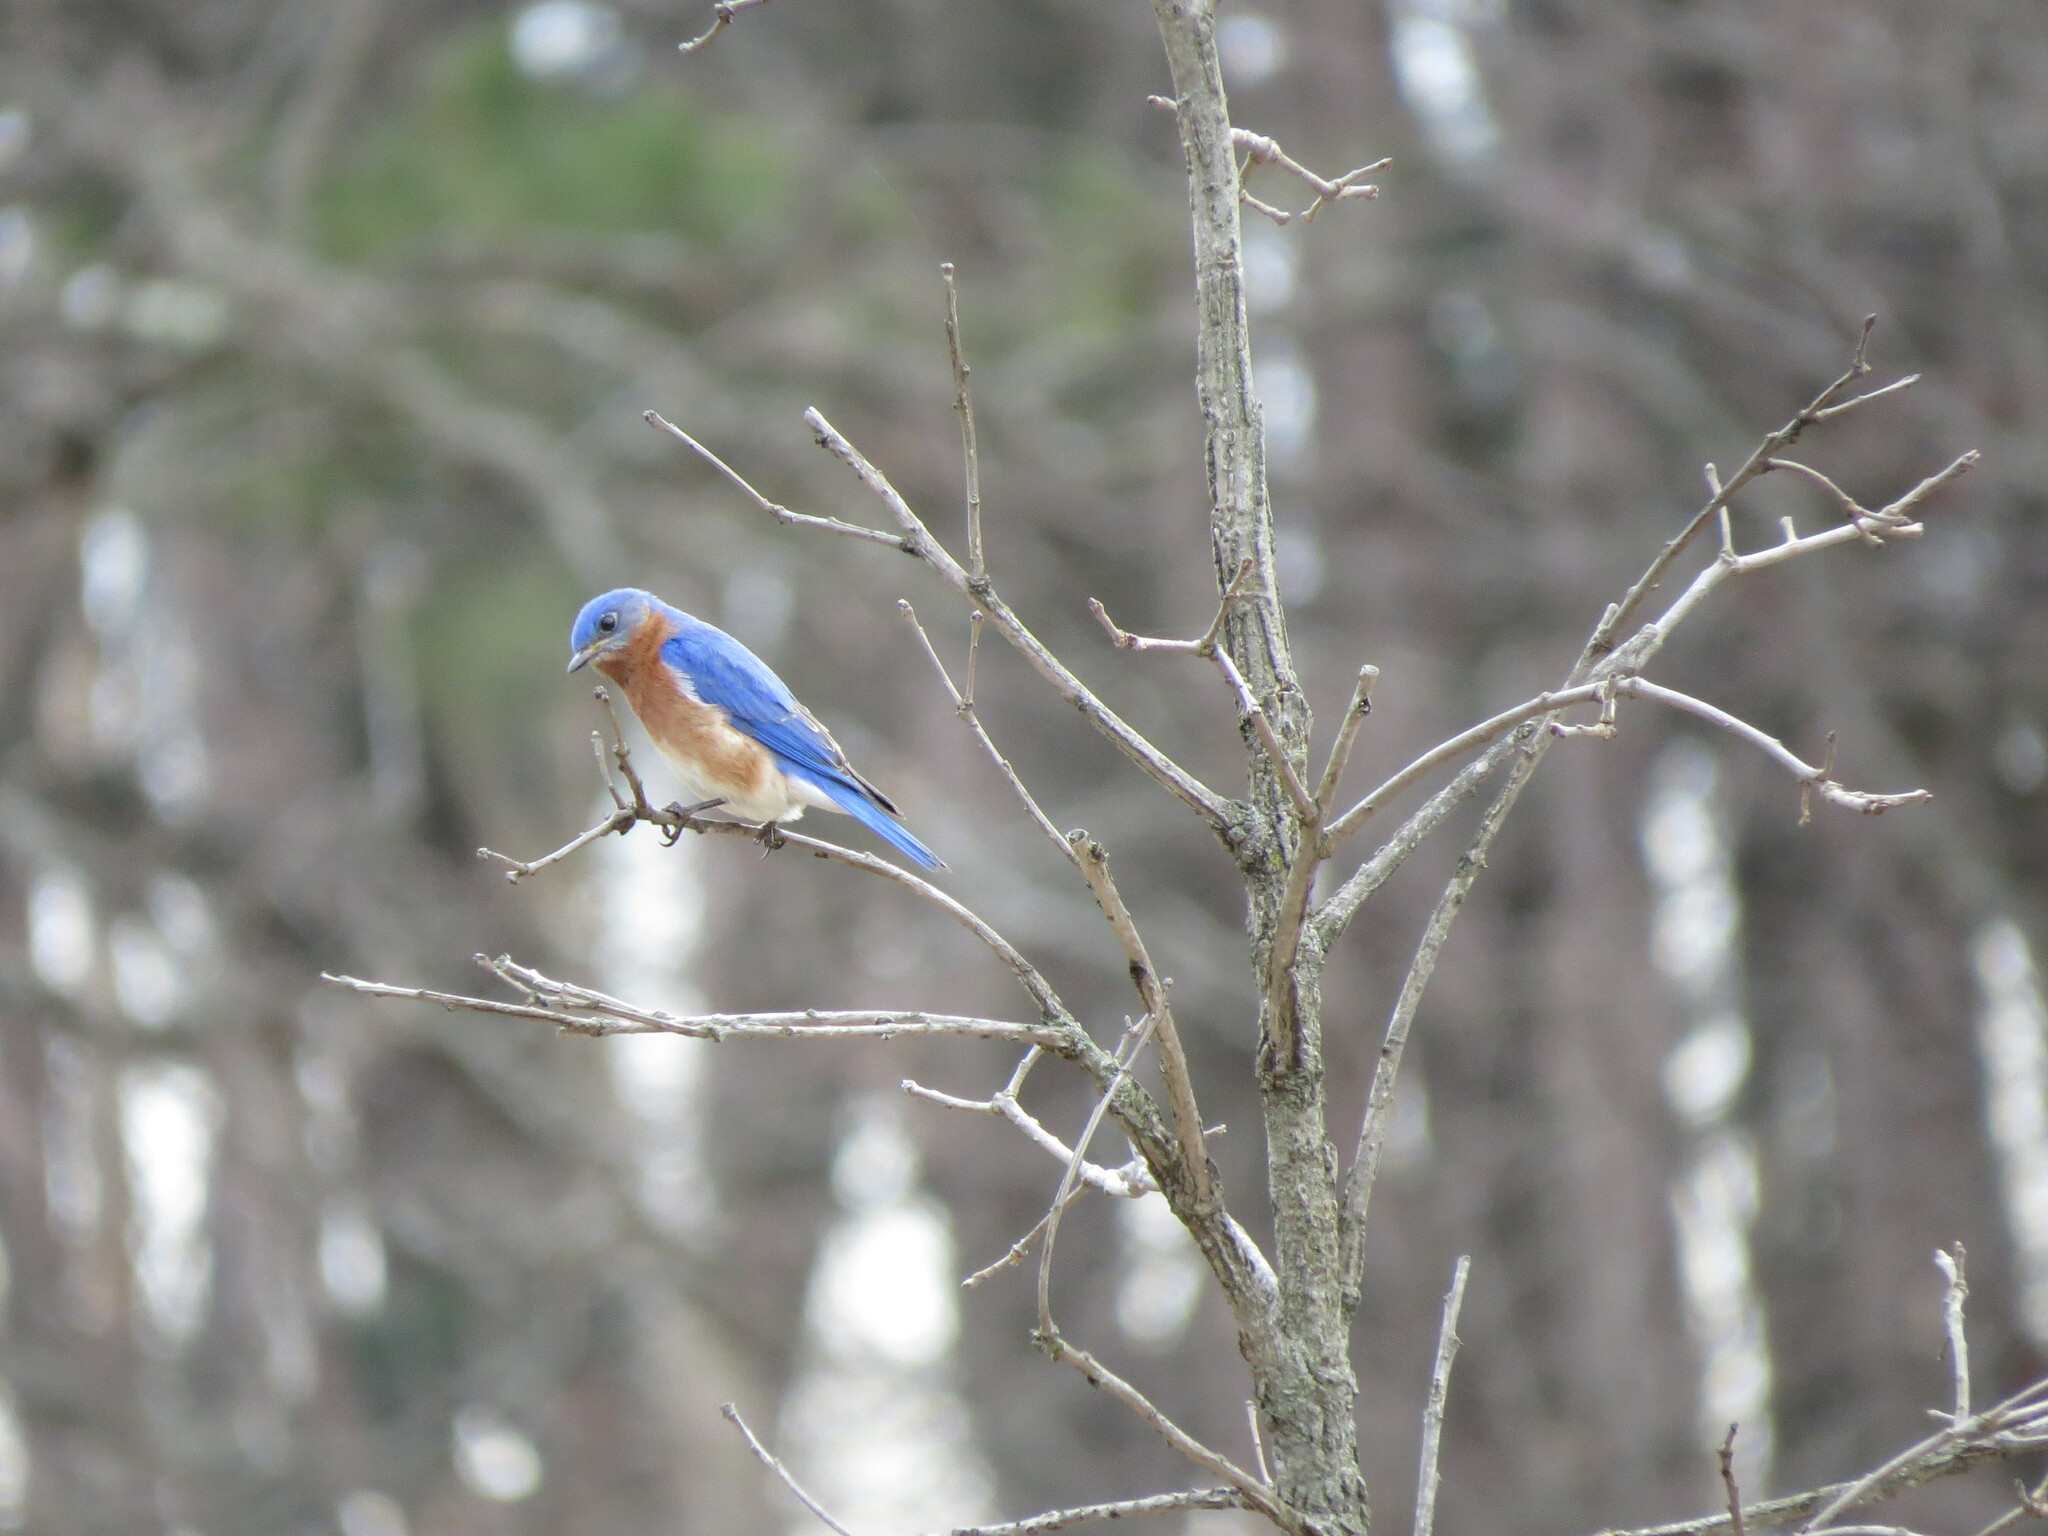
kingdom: Animalia
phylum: Chordata
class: Aves
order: Passeriformes
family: Turdidae
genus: Sialia
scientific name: Sialia sialis
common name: Eastern bluebird
